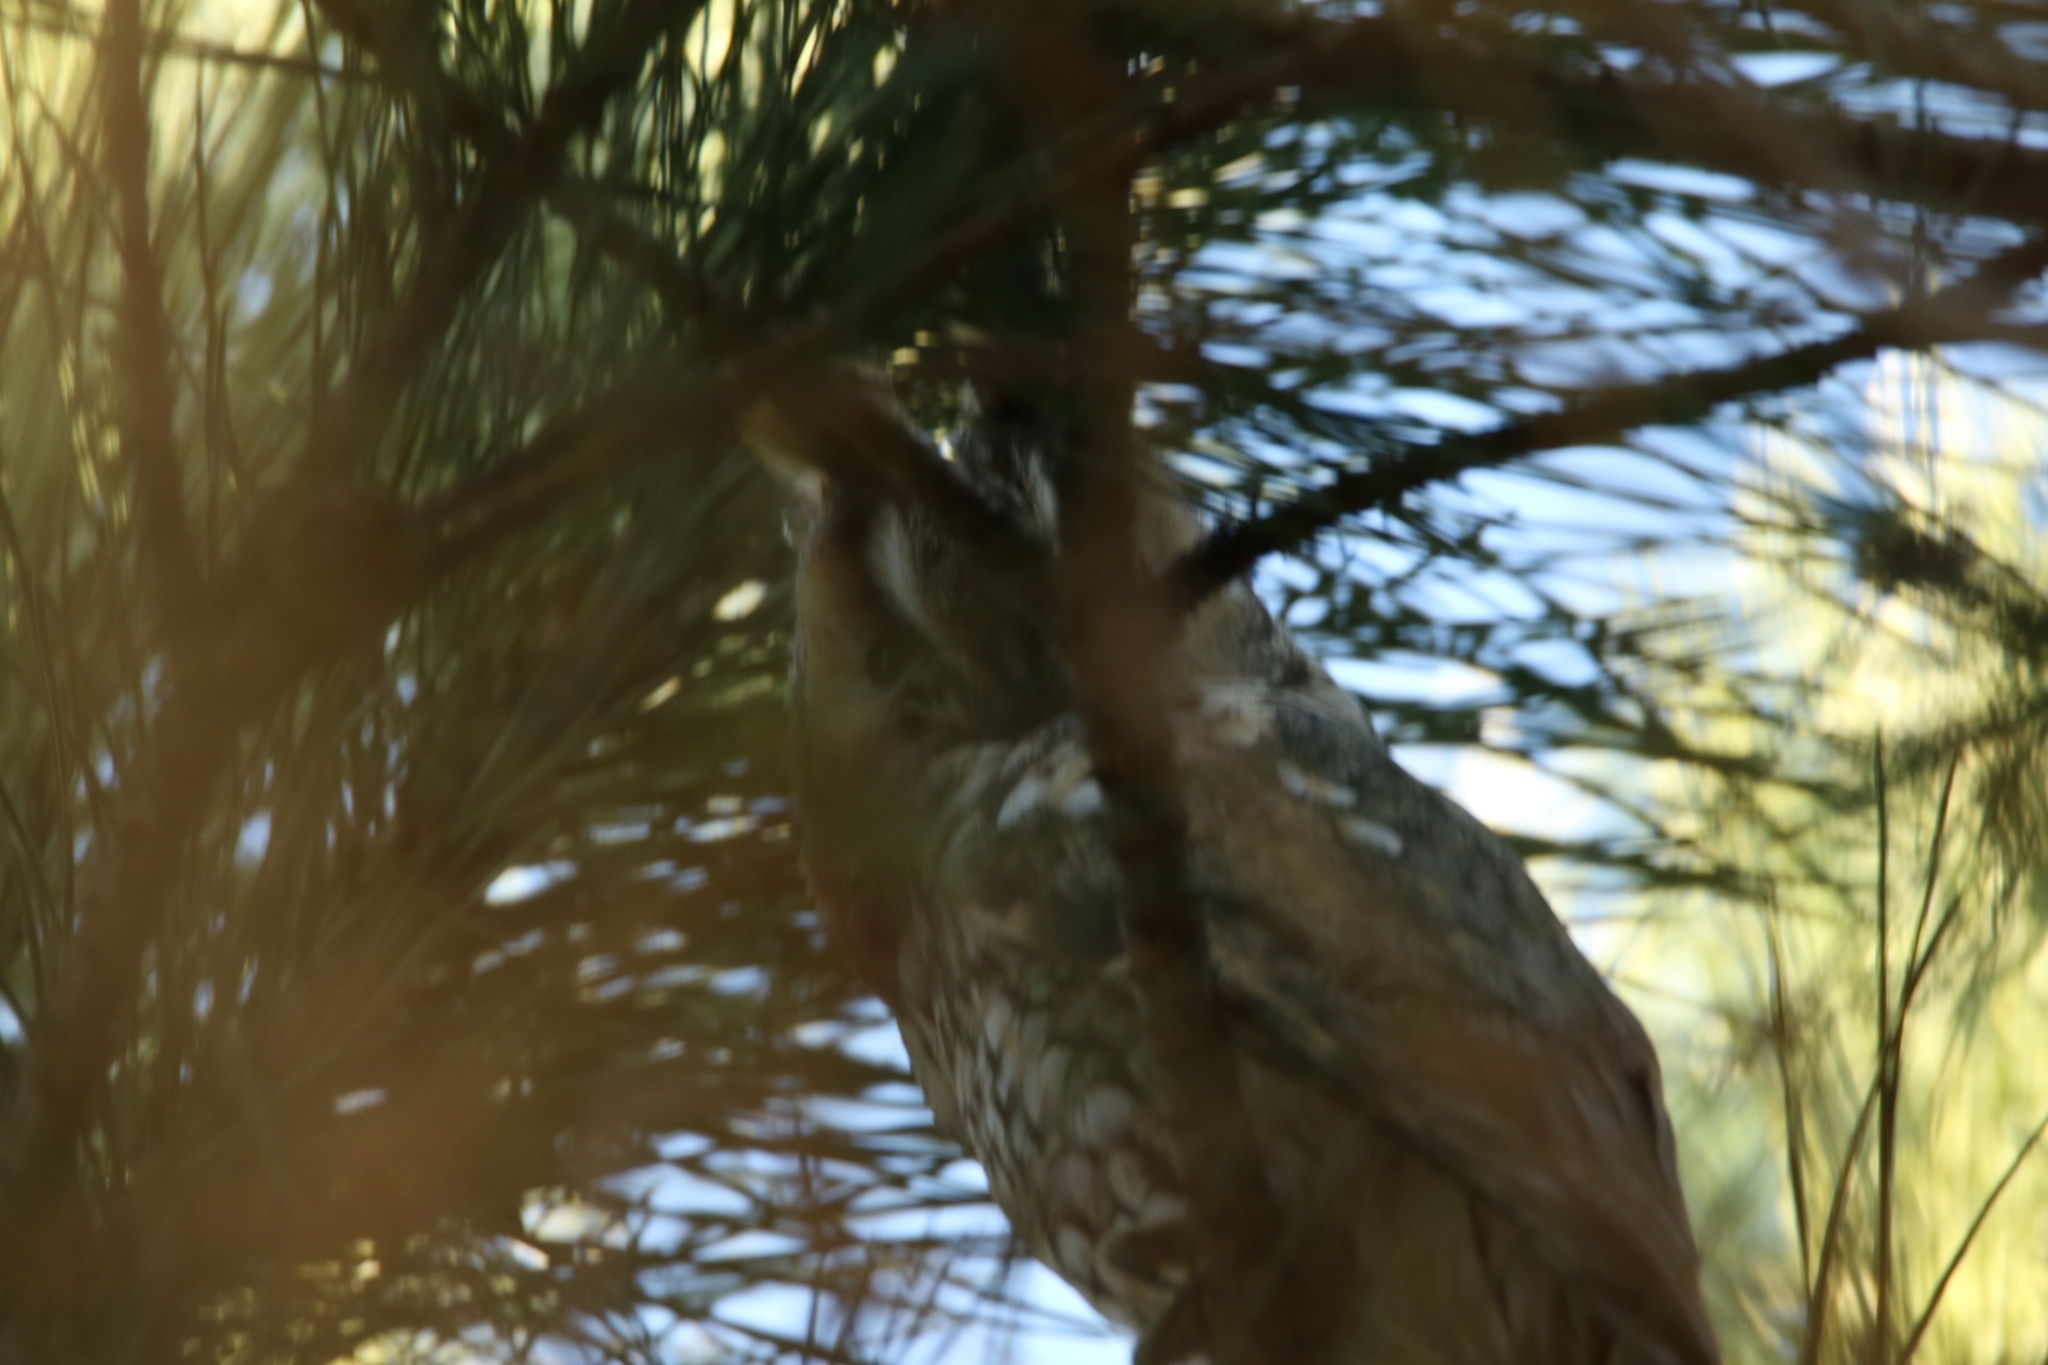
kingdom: Animalia
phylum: Chordata
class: Aves
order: Strigiformes
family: Strigidae
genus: Asio
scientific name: Asio otus
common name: Long-eared owl
